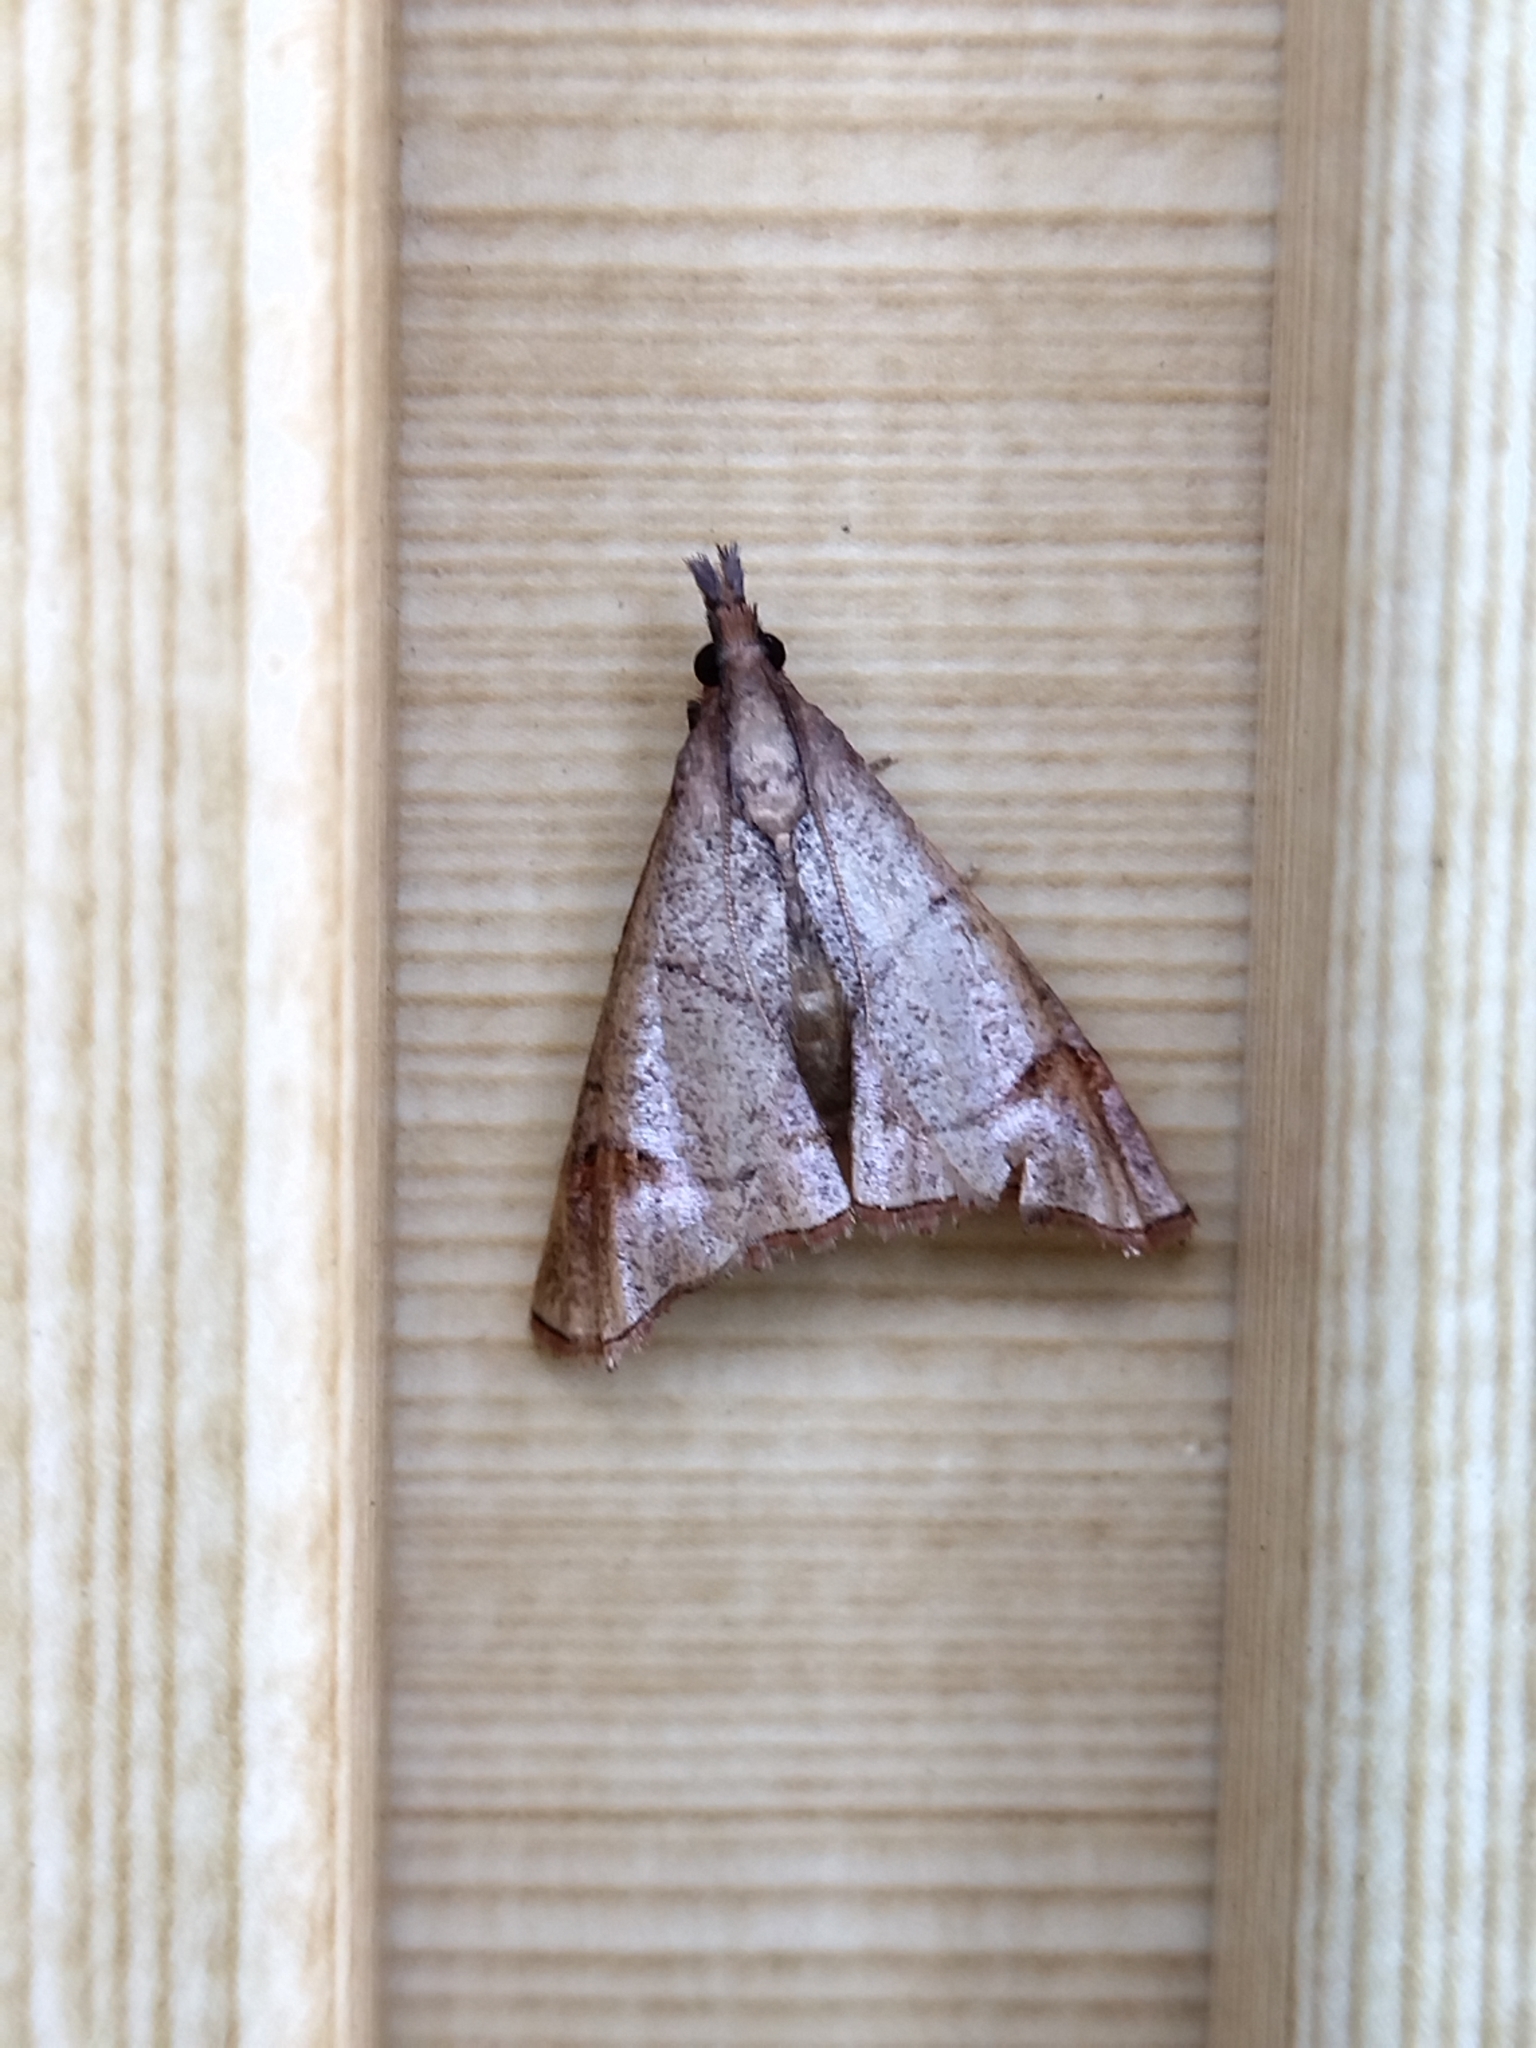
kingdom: Animalia
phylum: Arthropoda
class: Insecta
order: Lepidoptera
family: Pyralidae
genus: Eulophopalpia
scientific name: Eulophopalpia pauperalis
